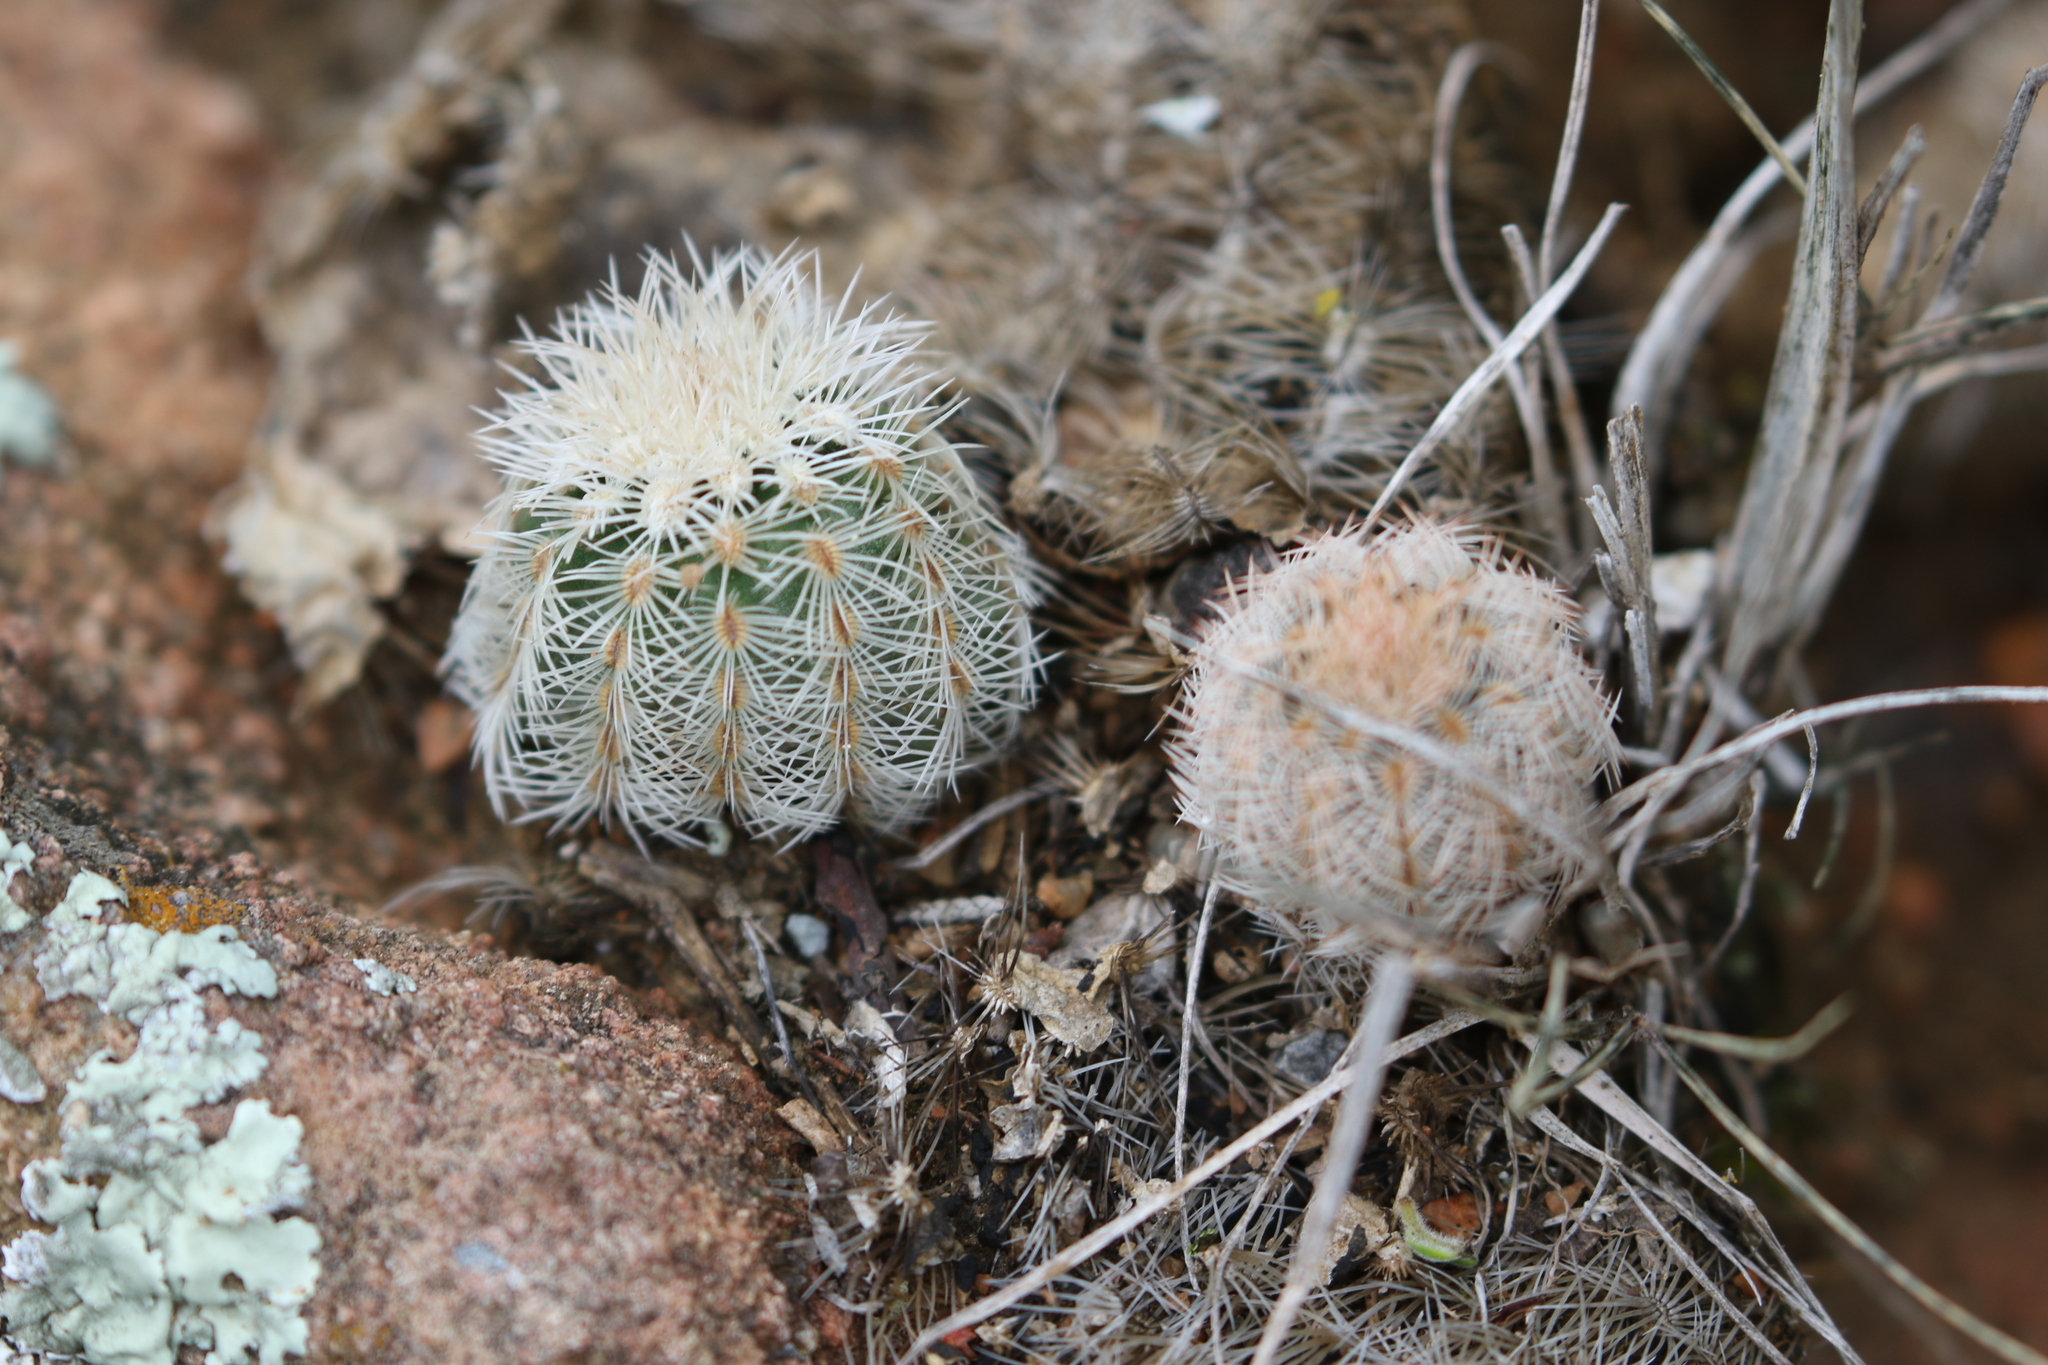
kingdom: Plantae
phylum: Tracheophyta
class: Magnoliopsida
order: Caryophyllales
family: Cactaceae
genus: Echinocereus
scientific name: Echinocereus reichenbachii
